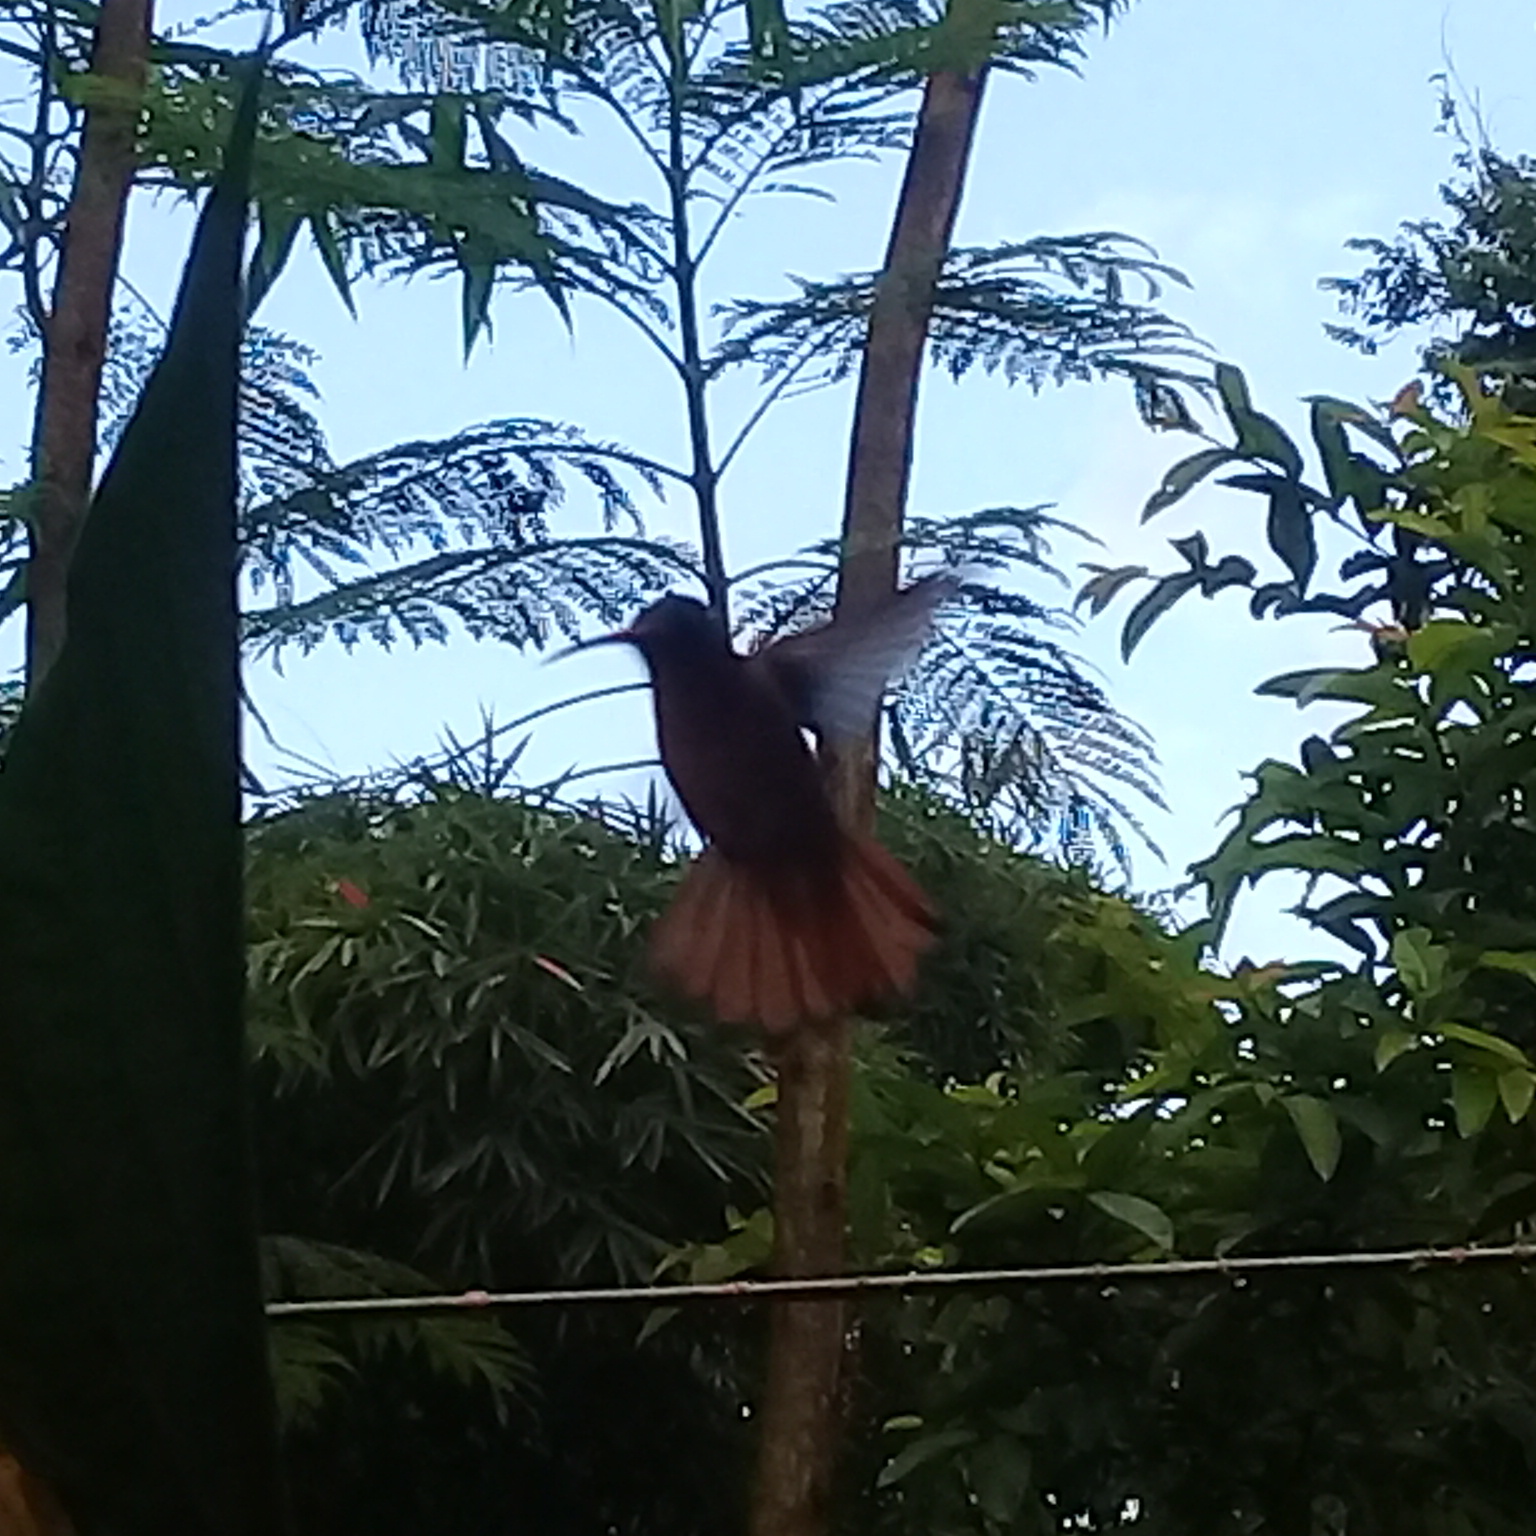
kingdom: Animalia
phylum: Chordata
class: Aves
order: Apodiformes
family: Trochilidae
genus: Amazilia
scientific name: Amazilia rutila
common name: Cinnamon hummingbird
